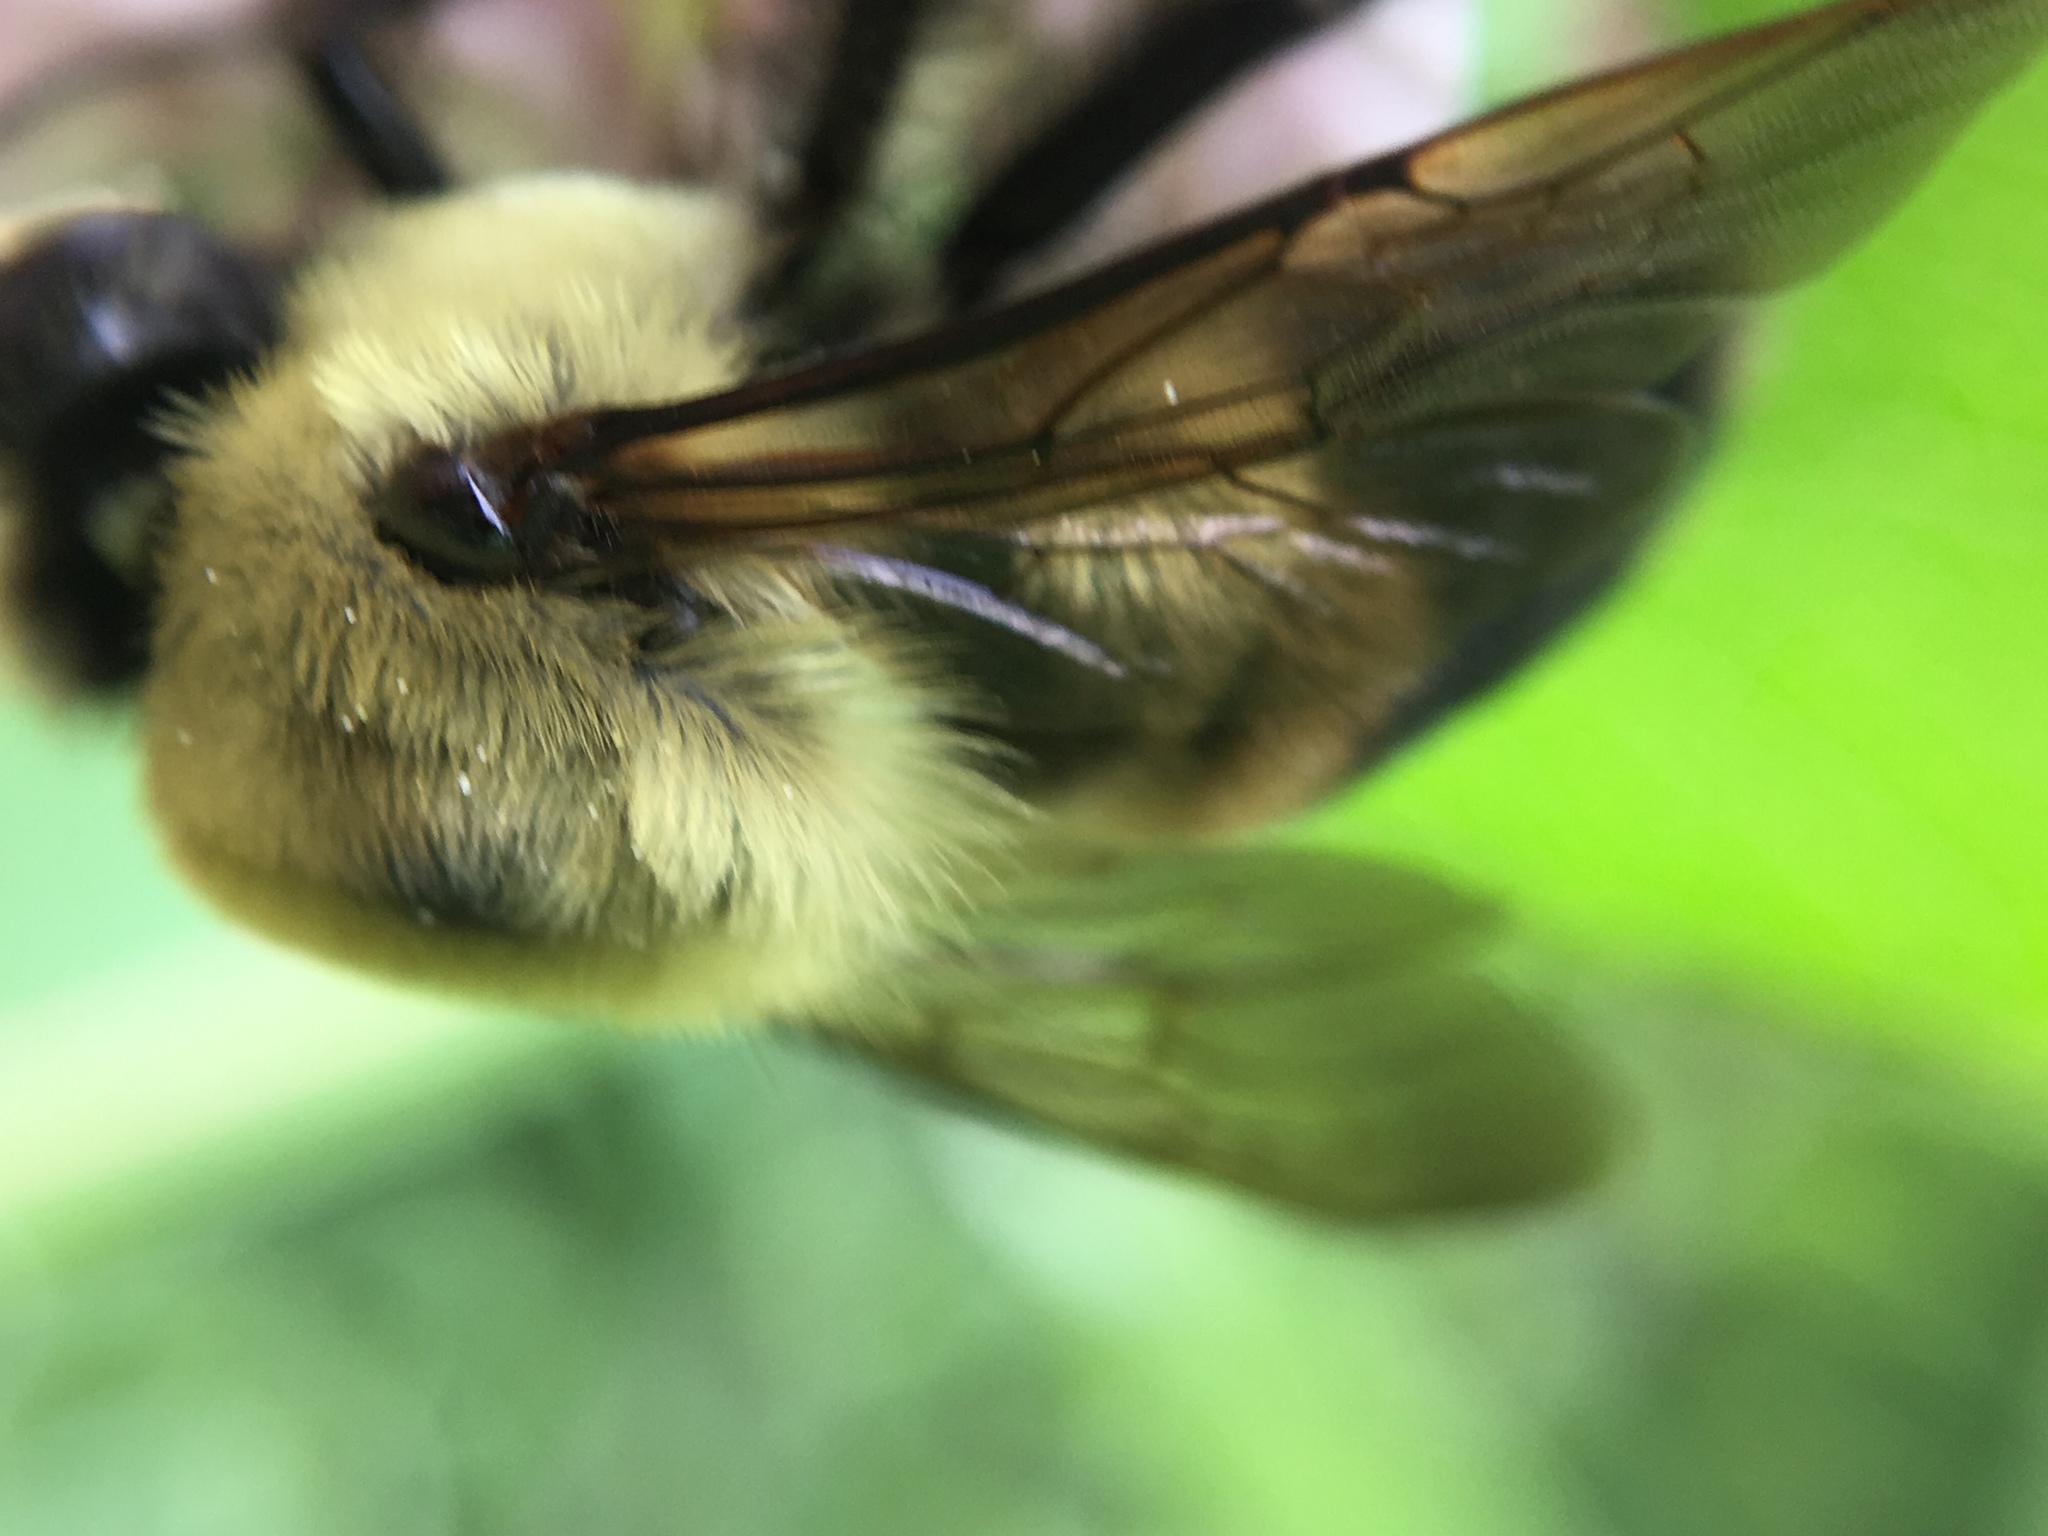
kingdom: Animalia
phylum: Arthropoda
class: Insecta
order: Hymenoptera
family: Apidae
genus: Bombus
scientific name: Bombus griseocollis
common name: Brown-belted bumble bee
